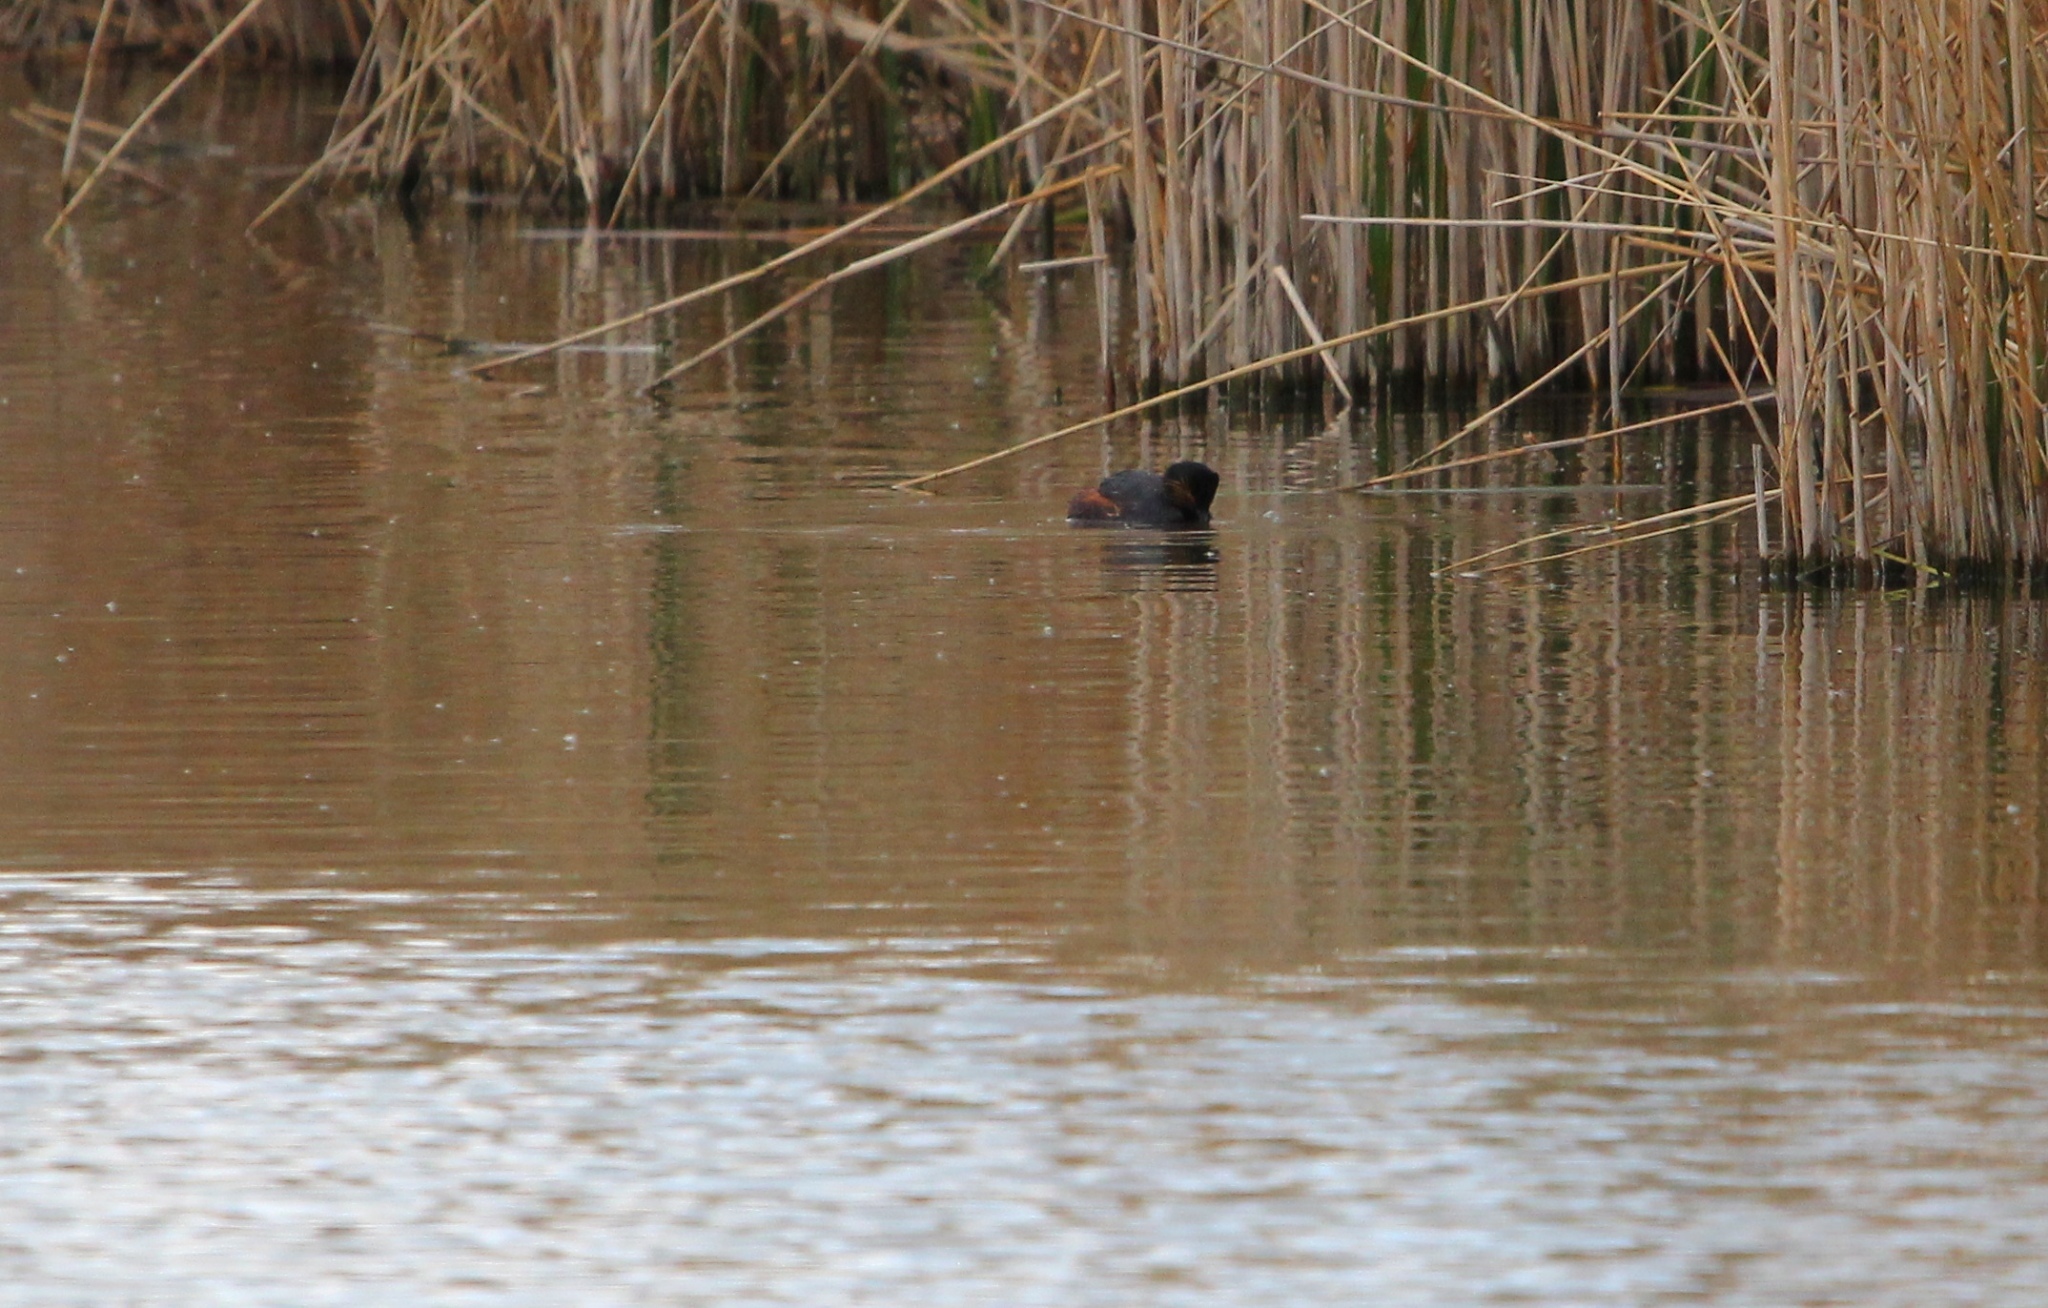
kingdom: Animalia
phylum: Chordata
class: Aves
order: Podicipediformes
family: Podicipedidae
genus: Podiceps
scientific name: Podiceps nigricollis
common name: Black-necked grebe
